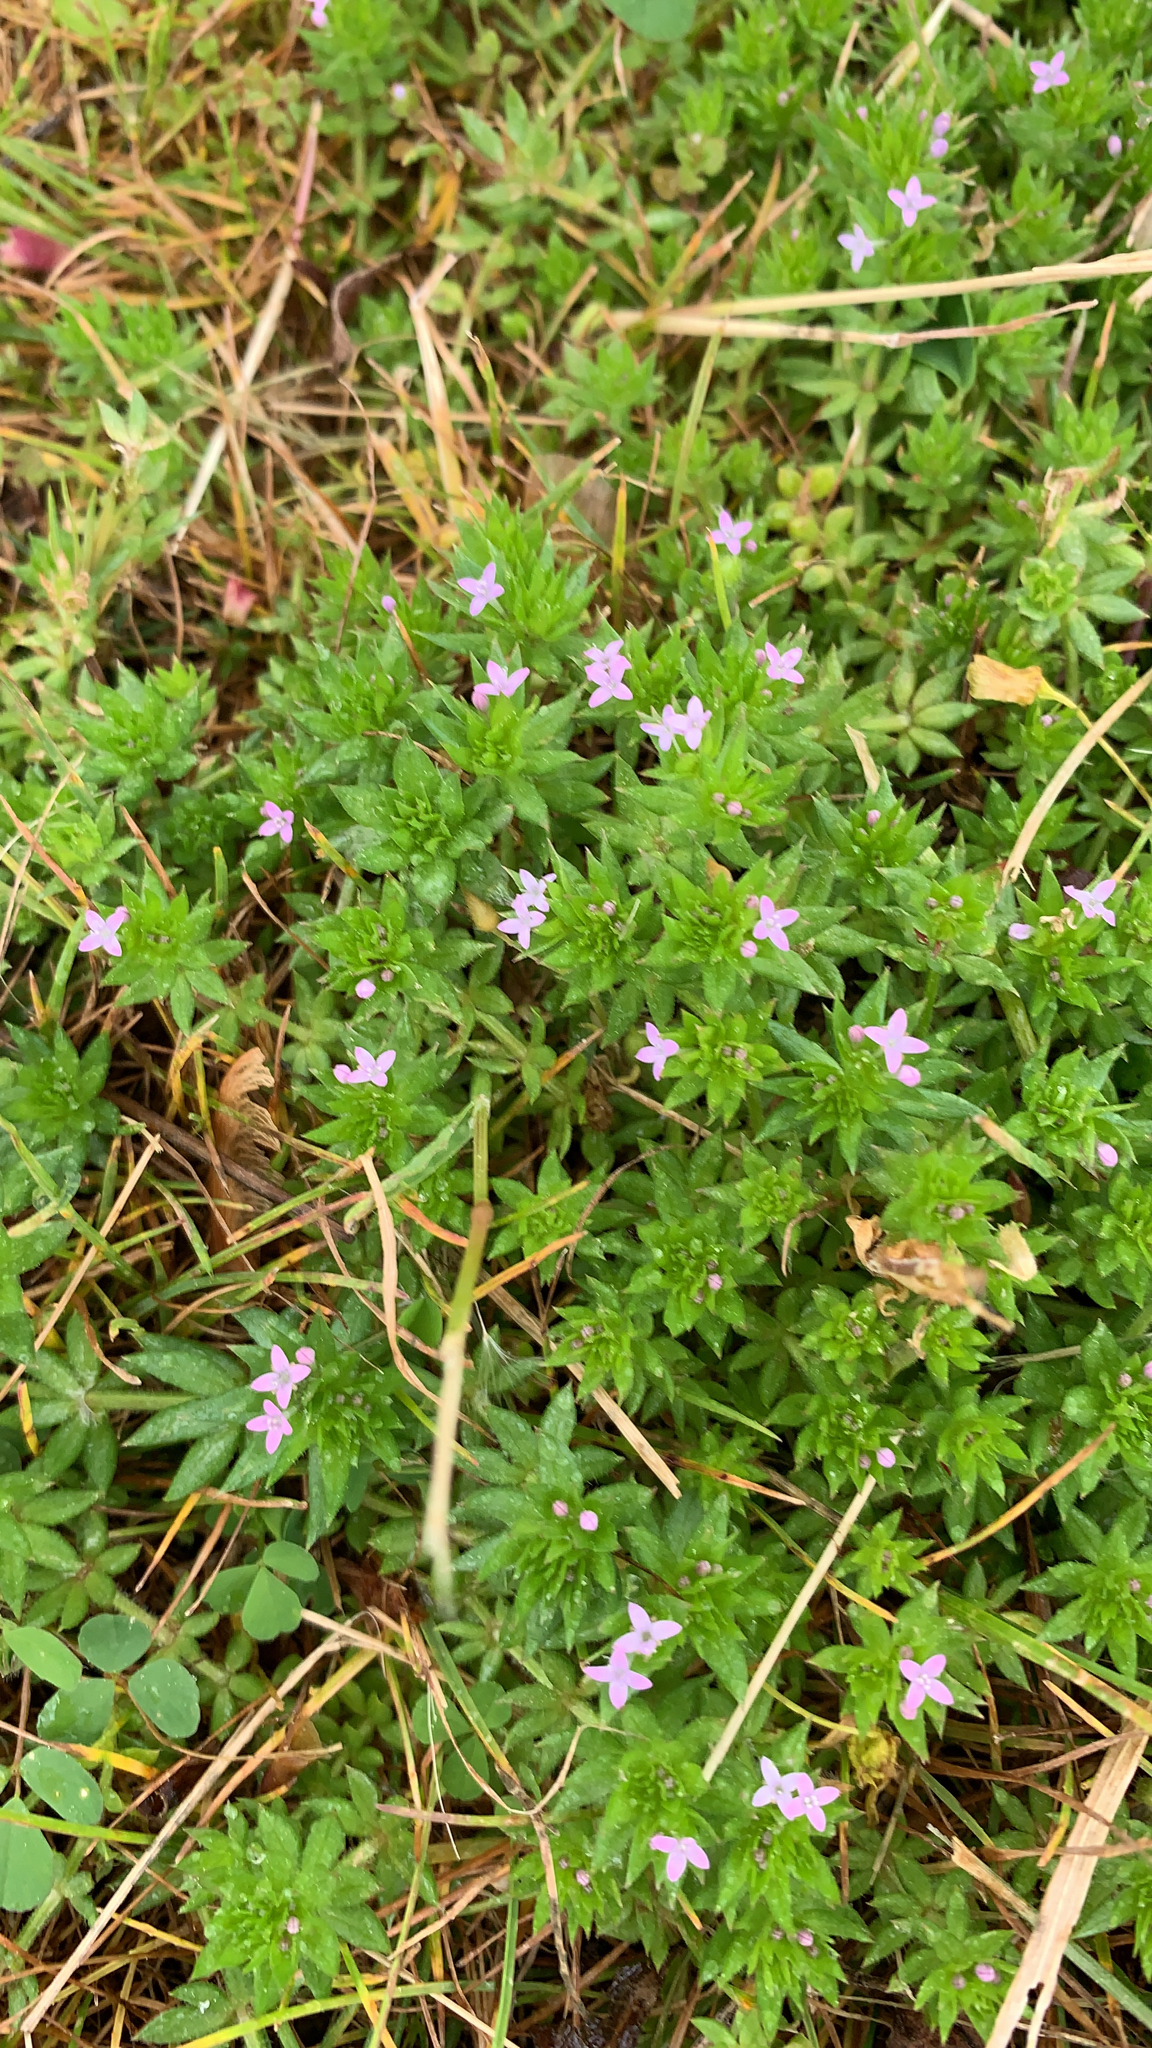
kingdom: Plantae
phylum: Tracheophyta
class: Magnoliopsida
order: Gentianales
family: Rubiaceae
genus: Sherardia
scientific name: Sherardia arvensis
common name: Field madder
